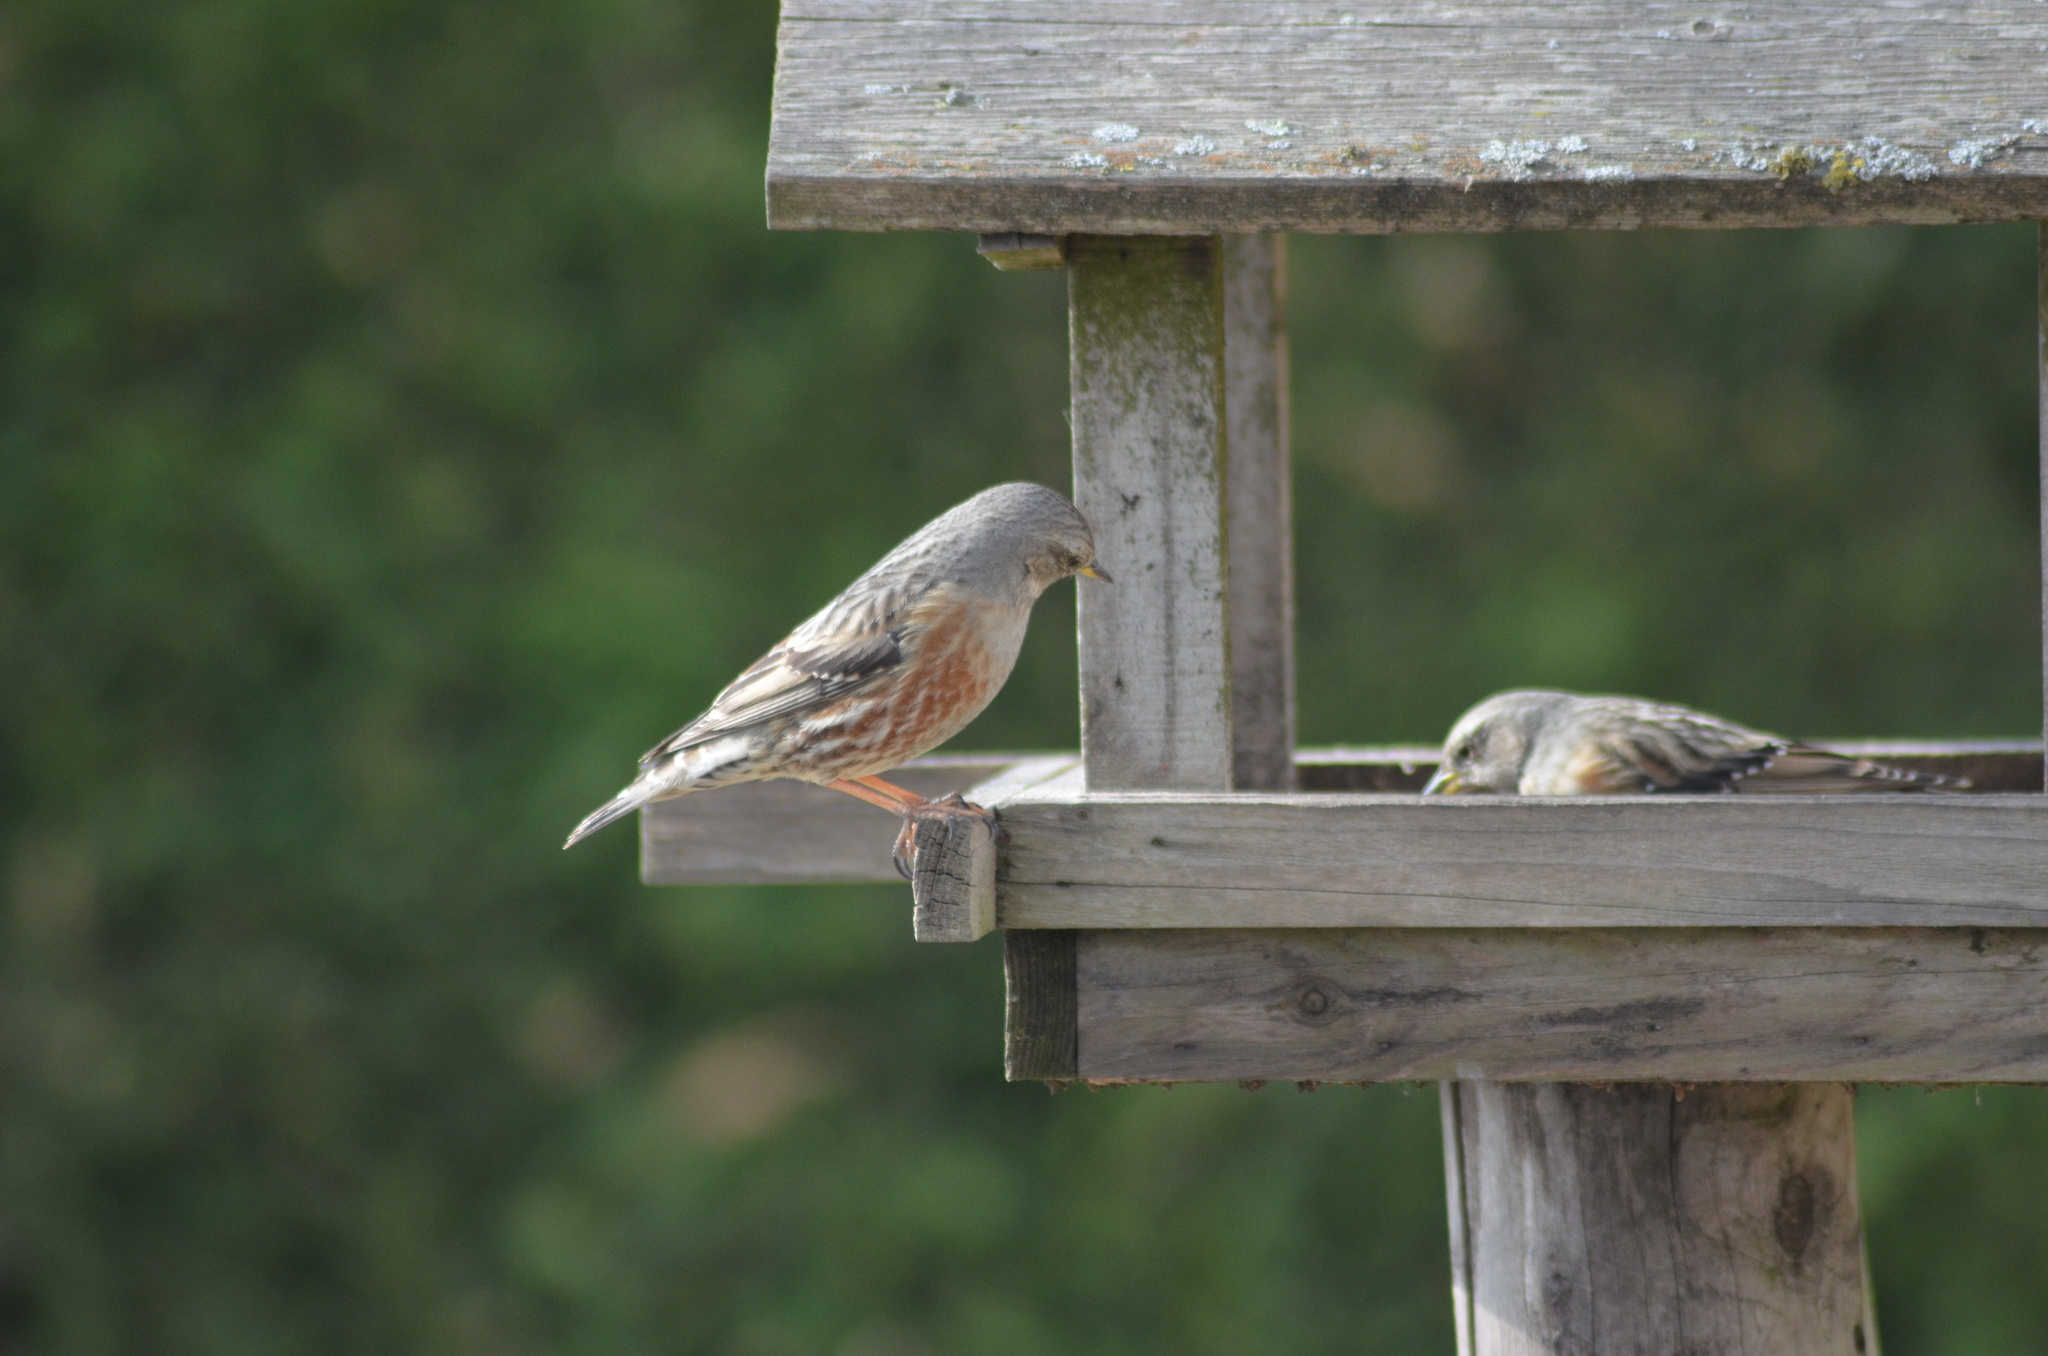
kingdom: Animalia
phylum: Chordata
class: Aves
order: Passeriformes
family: Prunellidae
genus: Prunella
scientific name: Prunella collaris
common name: Alpine accentor
